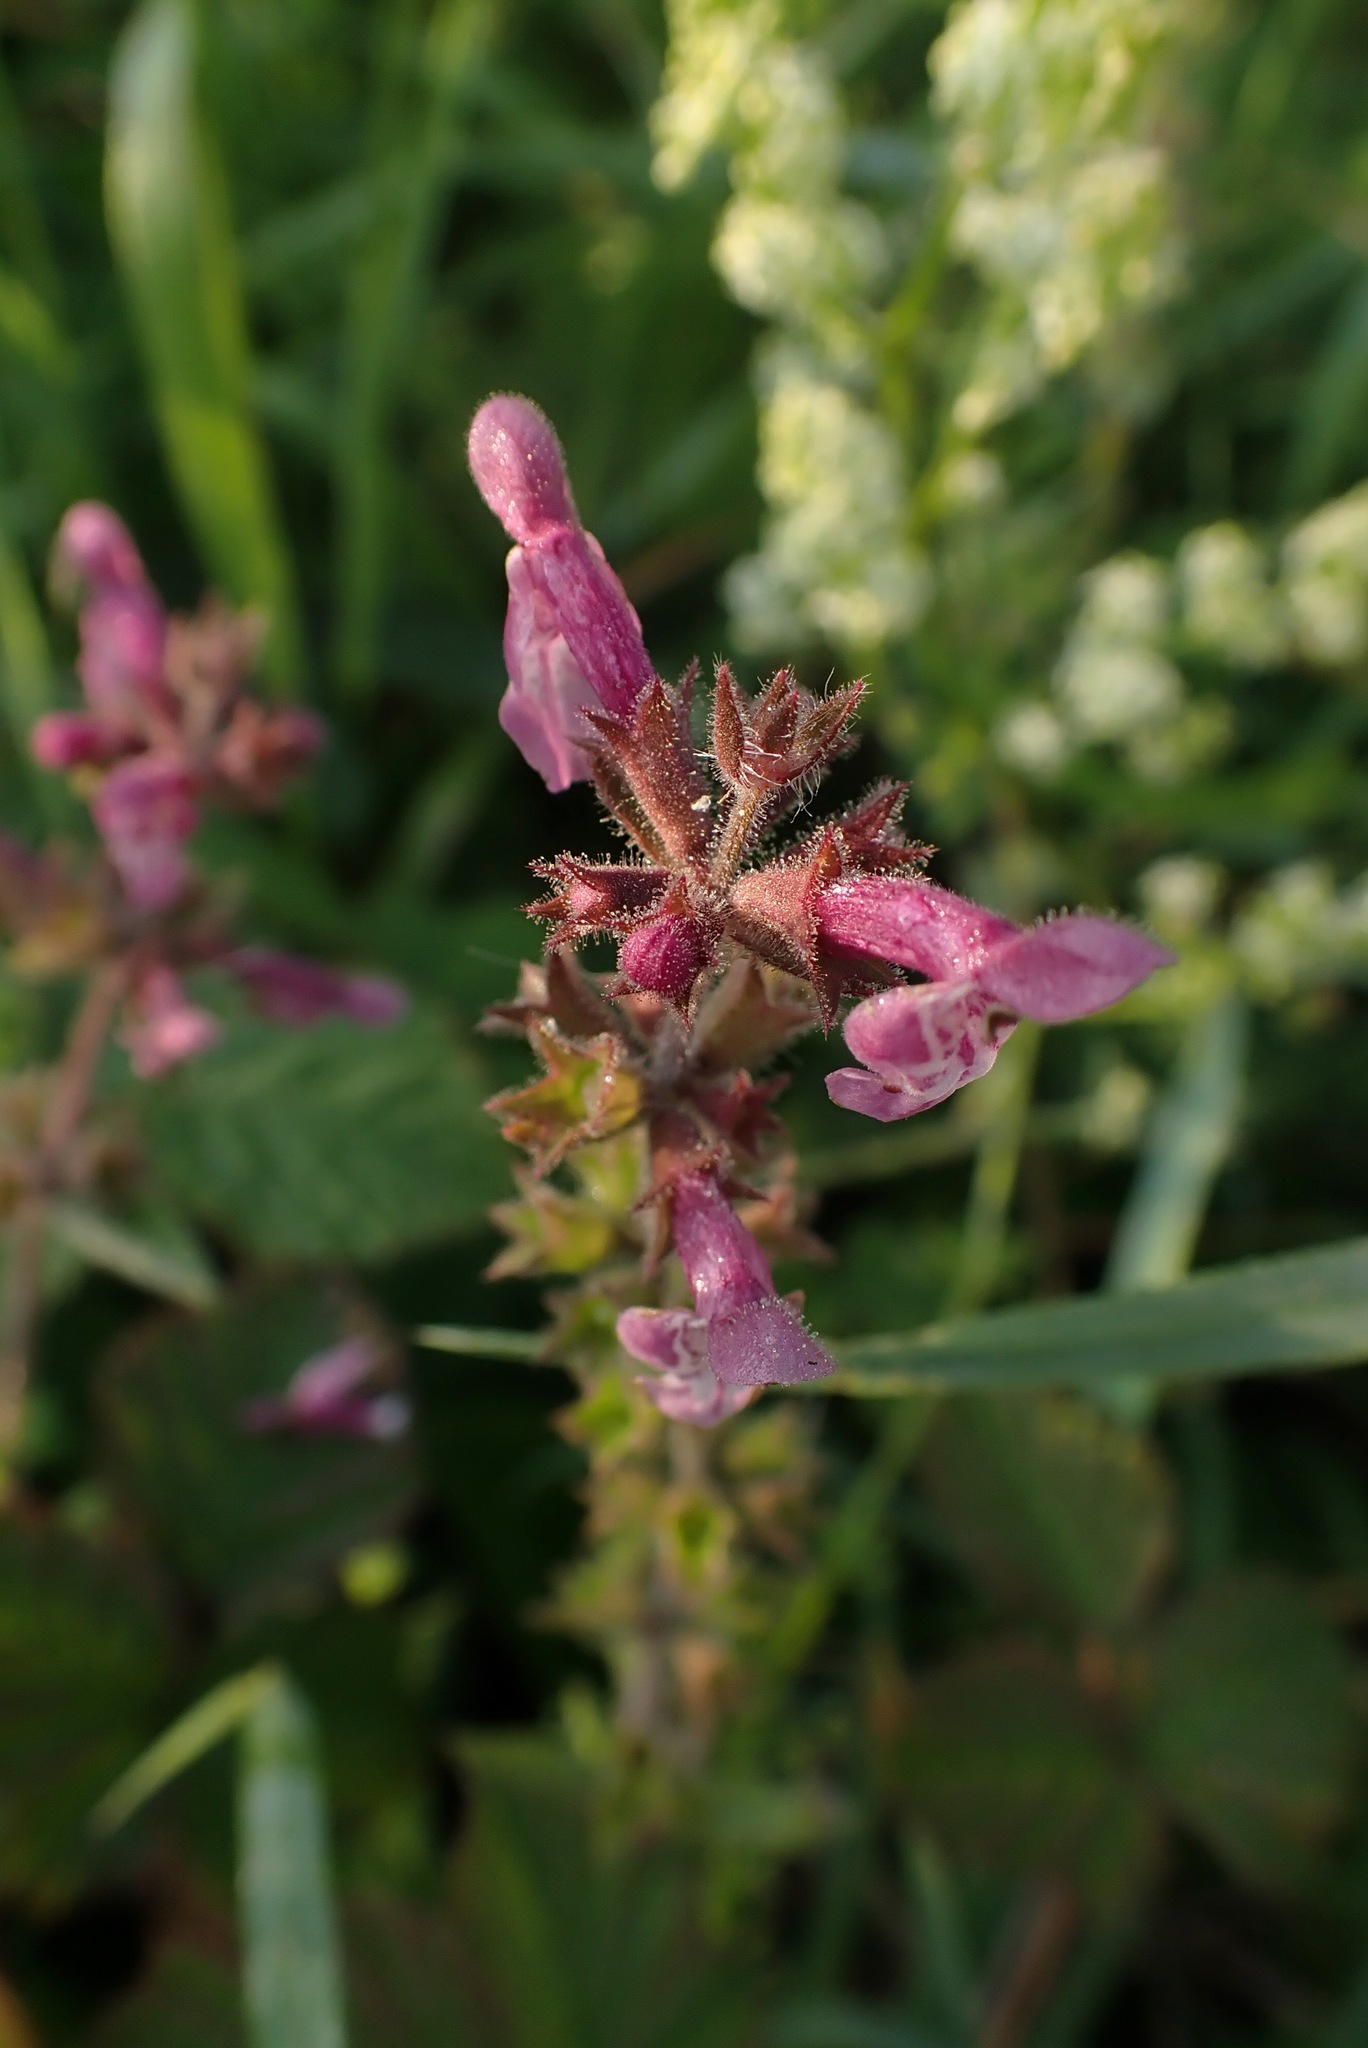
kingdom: Plantae
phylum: Tracheophyta
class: Magnoliopsida
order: Lamiales
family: Lamiaceae
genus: Stachys
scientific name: Stachys sylvatica
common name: Hedge woundwort
